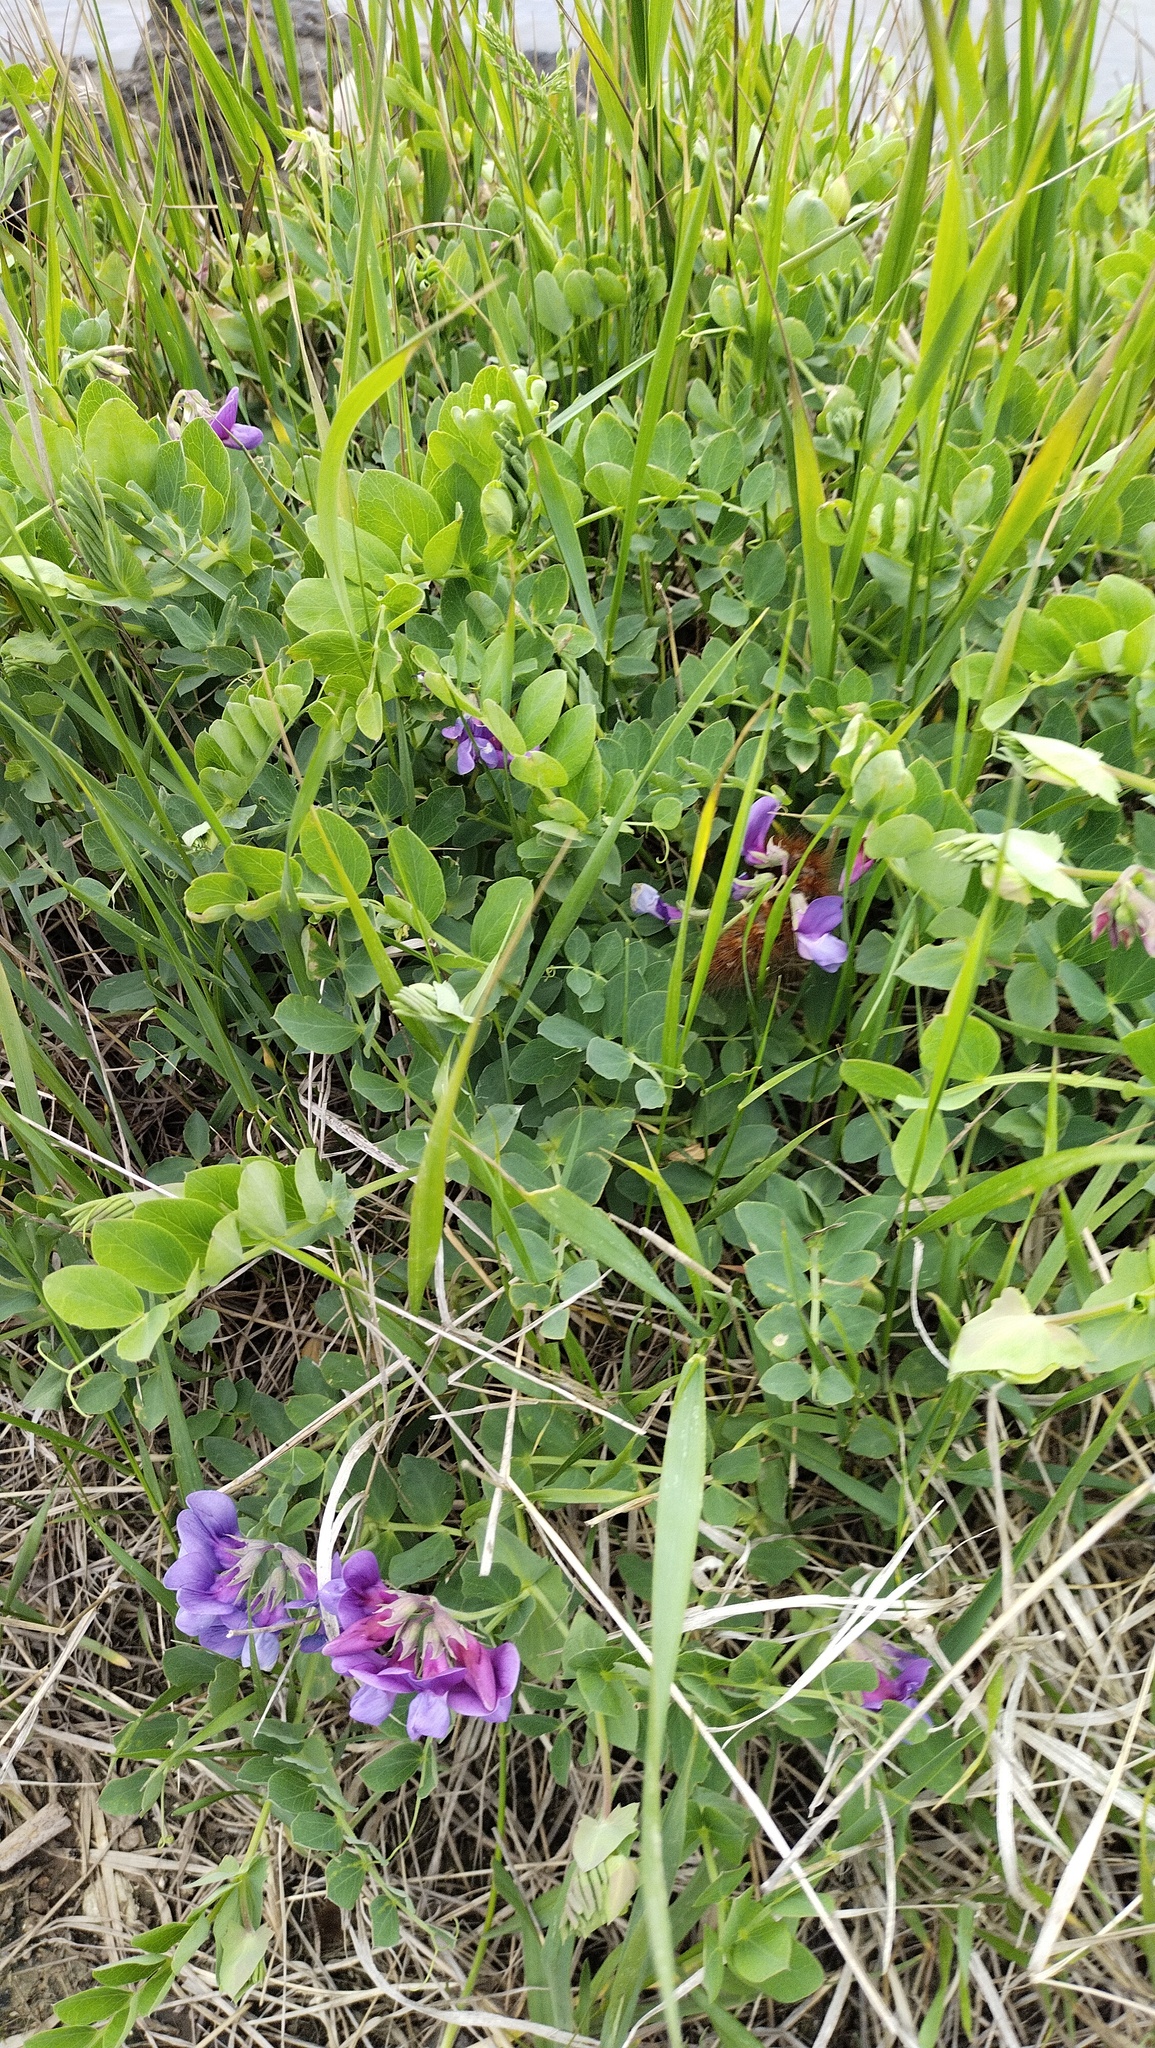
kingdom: Plantae
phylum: Tracheophyta
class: Magnoliopsida
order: Fabales
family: Fabaceae
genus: Lathyrus
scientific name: Lathyrus japonicus
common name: Sea pea
